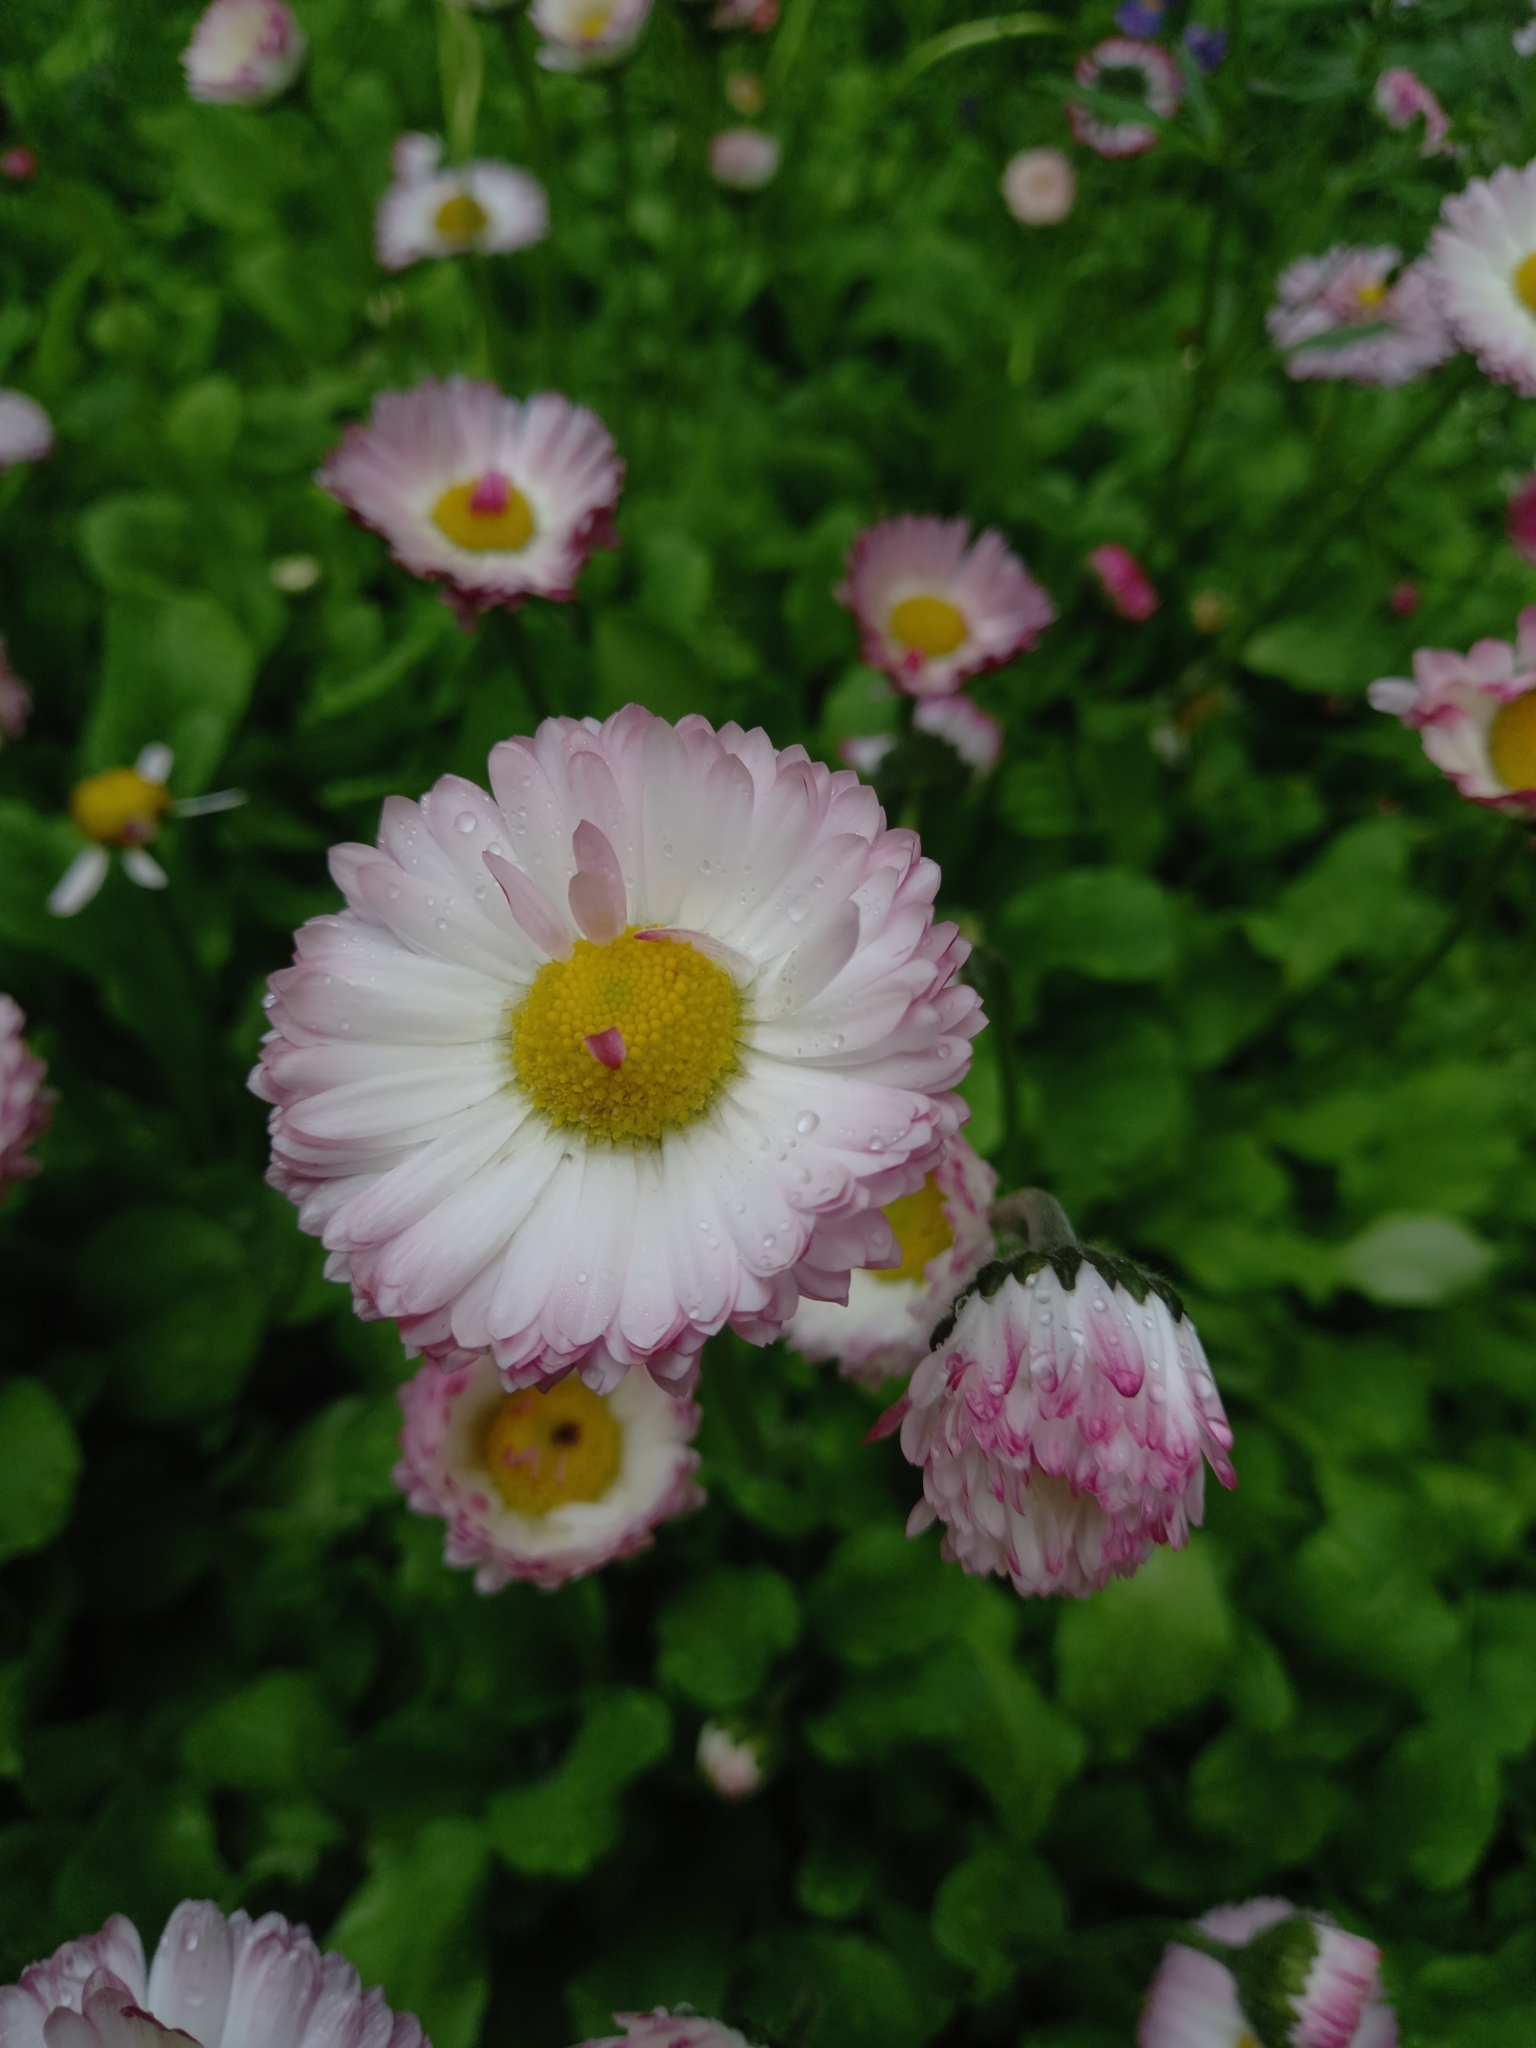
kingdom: Plantae
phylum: Tracheophyta
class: Magnoliopsida
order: Asterales
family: Asteraceae
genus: Bellis
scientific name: Bellis perennis
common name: Lawndaisy
